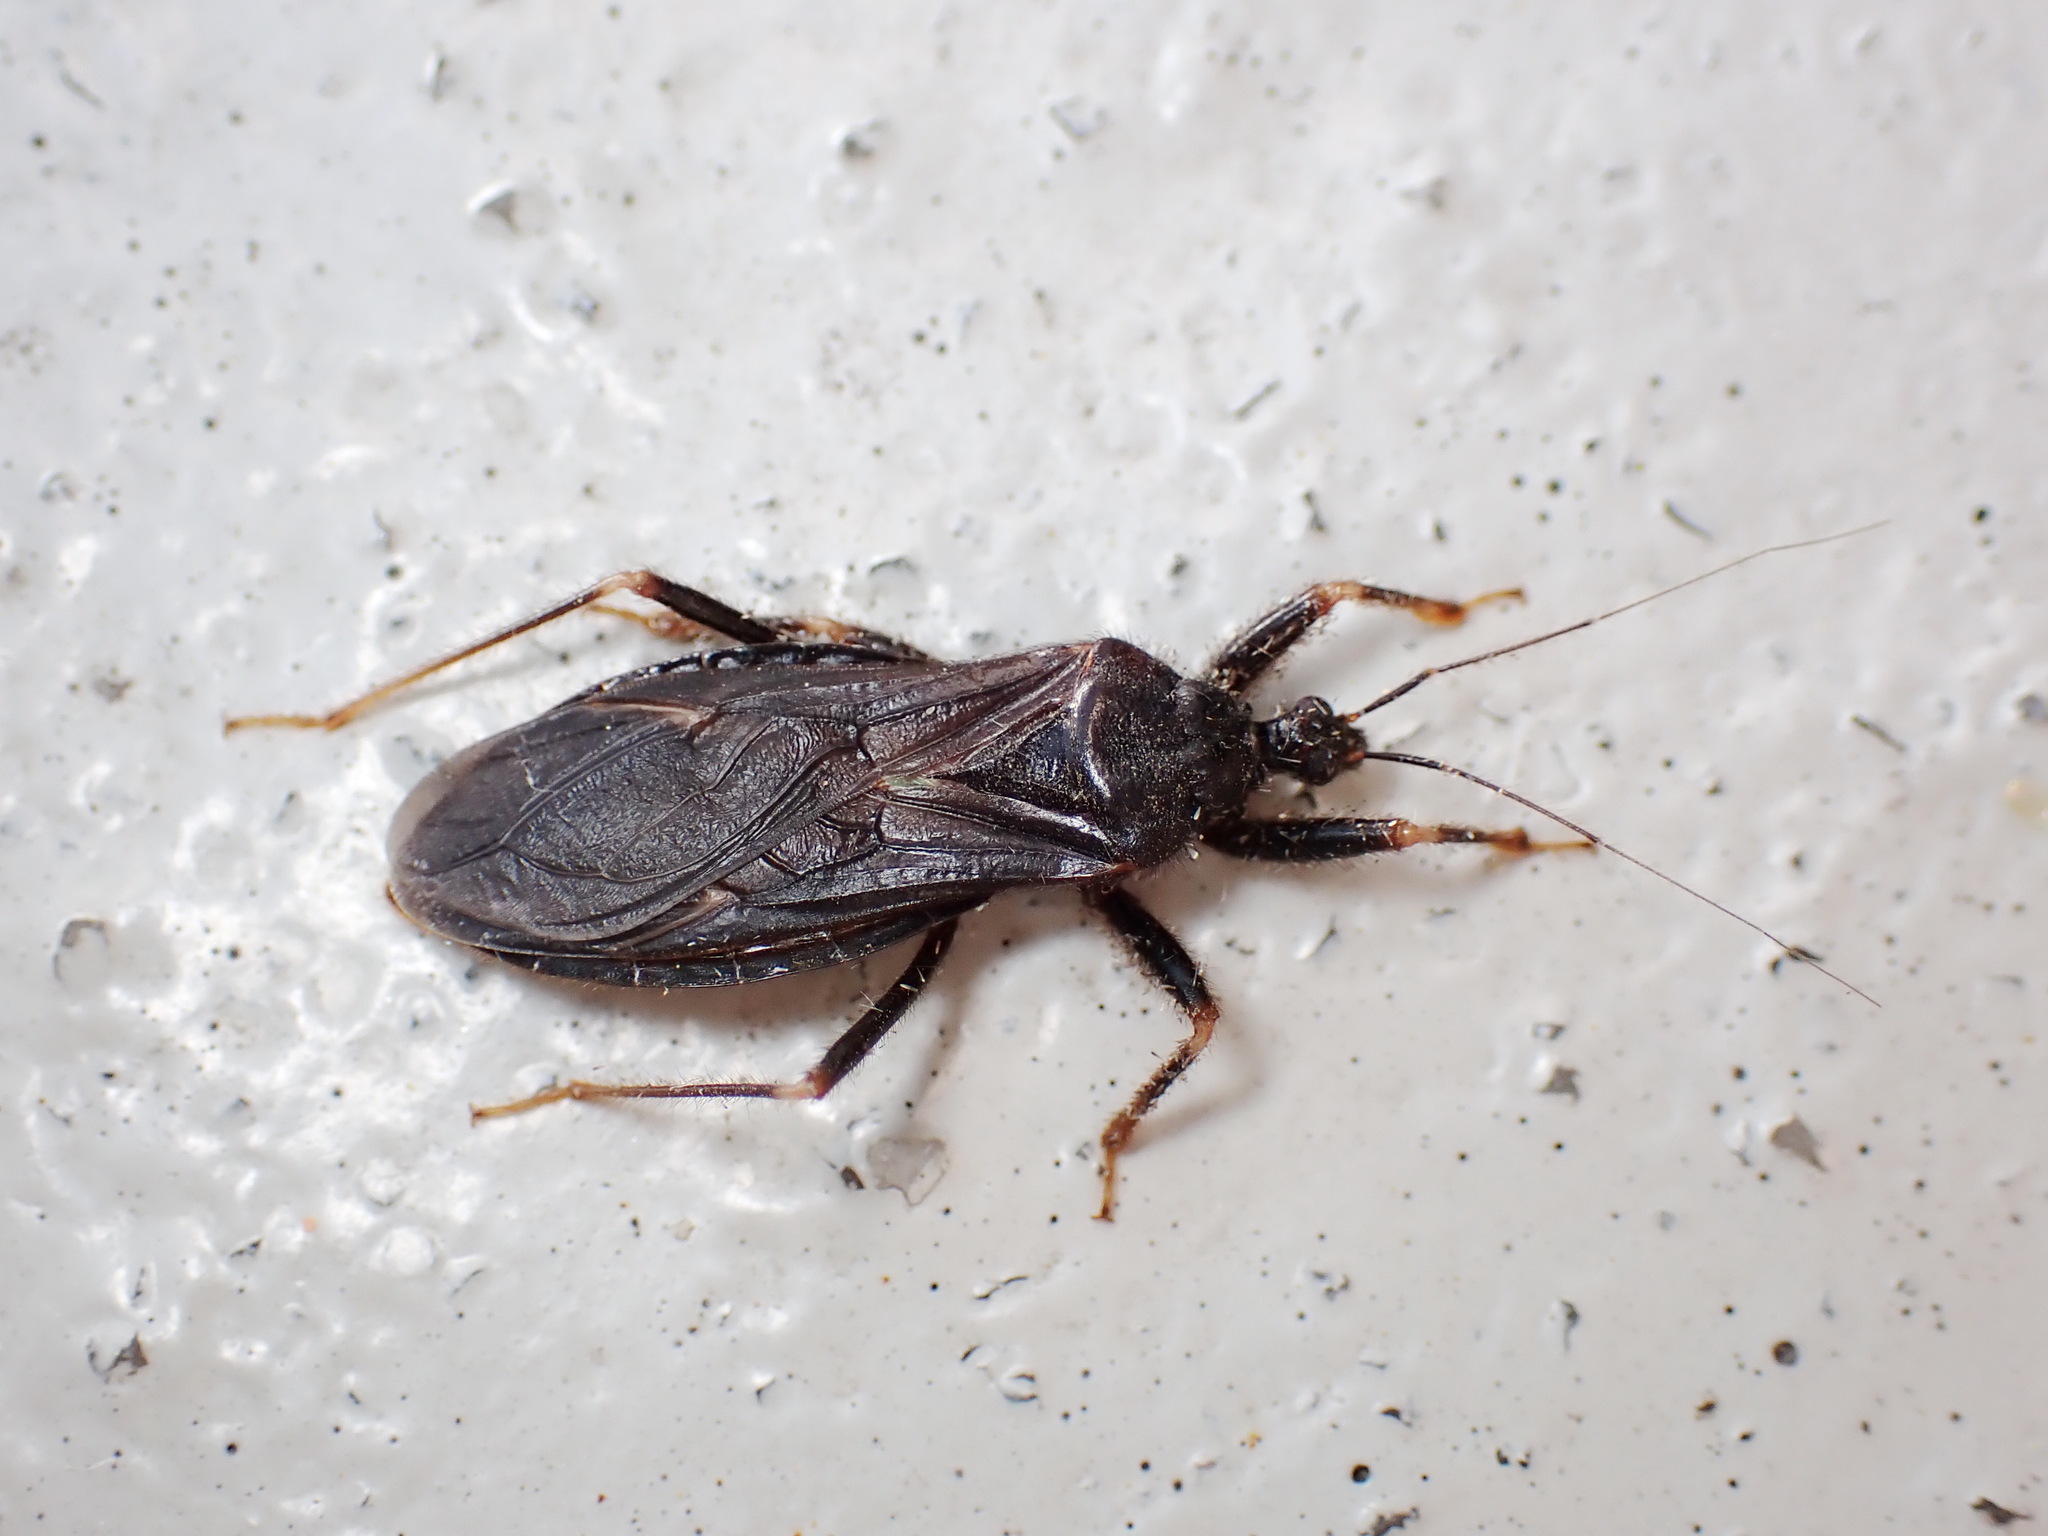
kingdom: Animalia
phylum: Arthropoda
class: Insecta
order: Hemiptera
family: Reduviidae
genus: Reduvius
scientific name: Reduvius personatus
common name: Masked hunter
